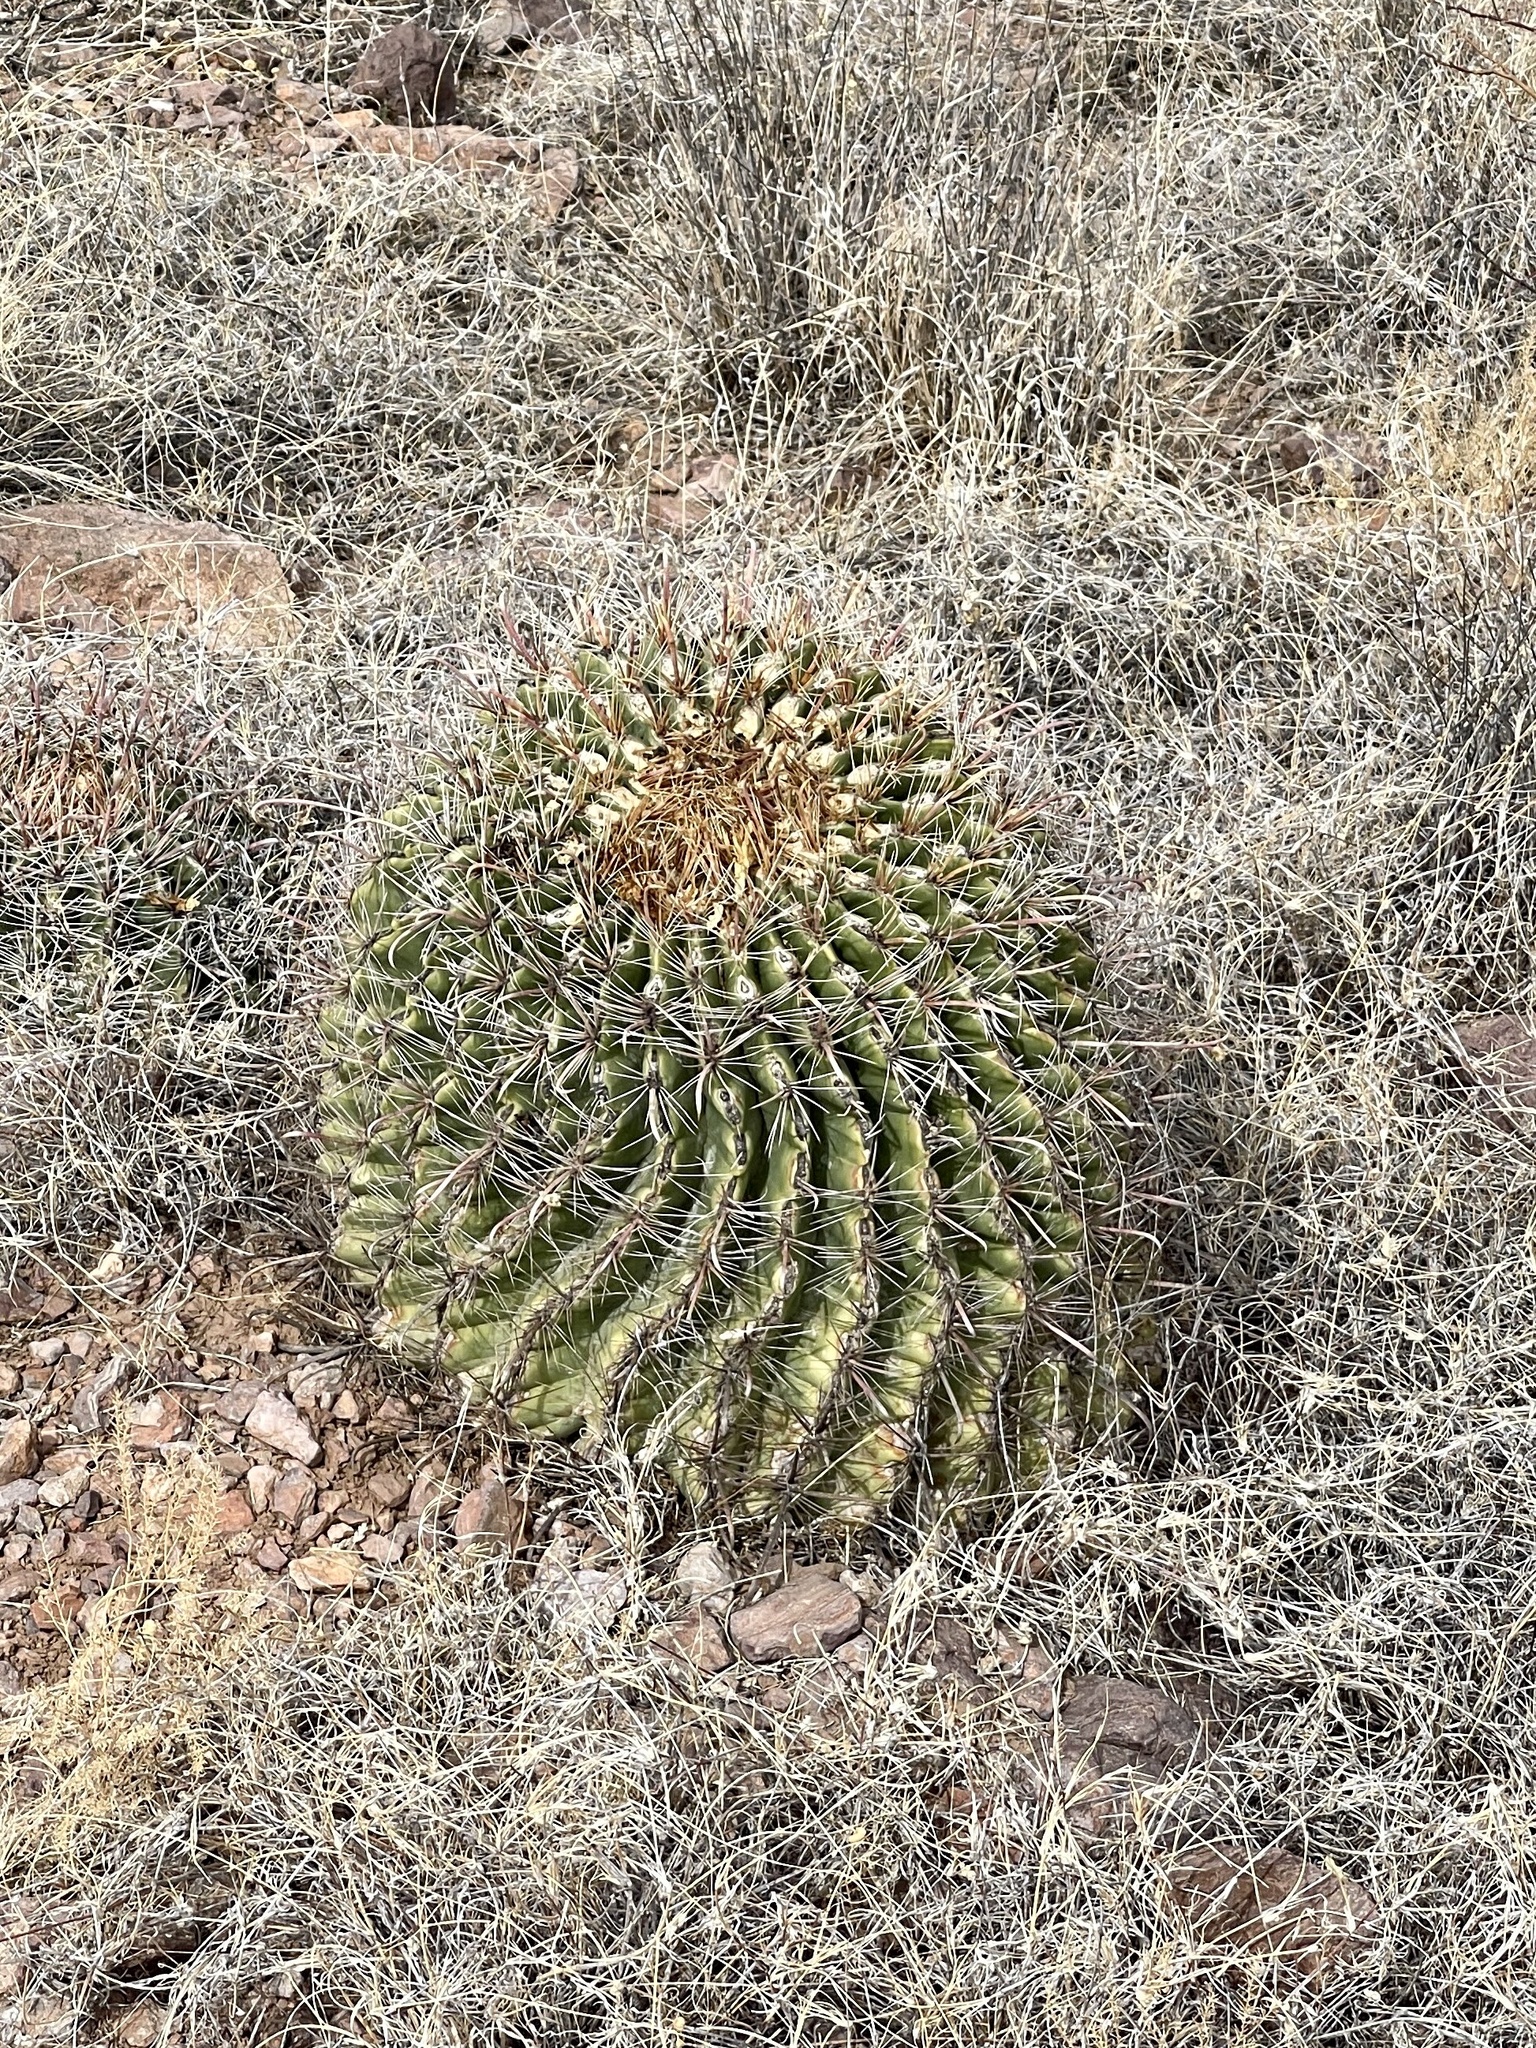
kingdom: Plantae
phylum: Tracheophyta
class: Magnoliopsida
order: Caryophyllales
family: Cactaceae
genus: Ferocactus
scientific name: Ferocactus wislizeni
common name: Candy barrel cactus
